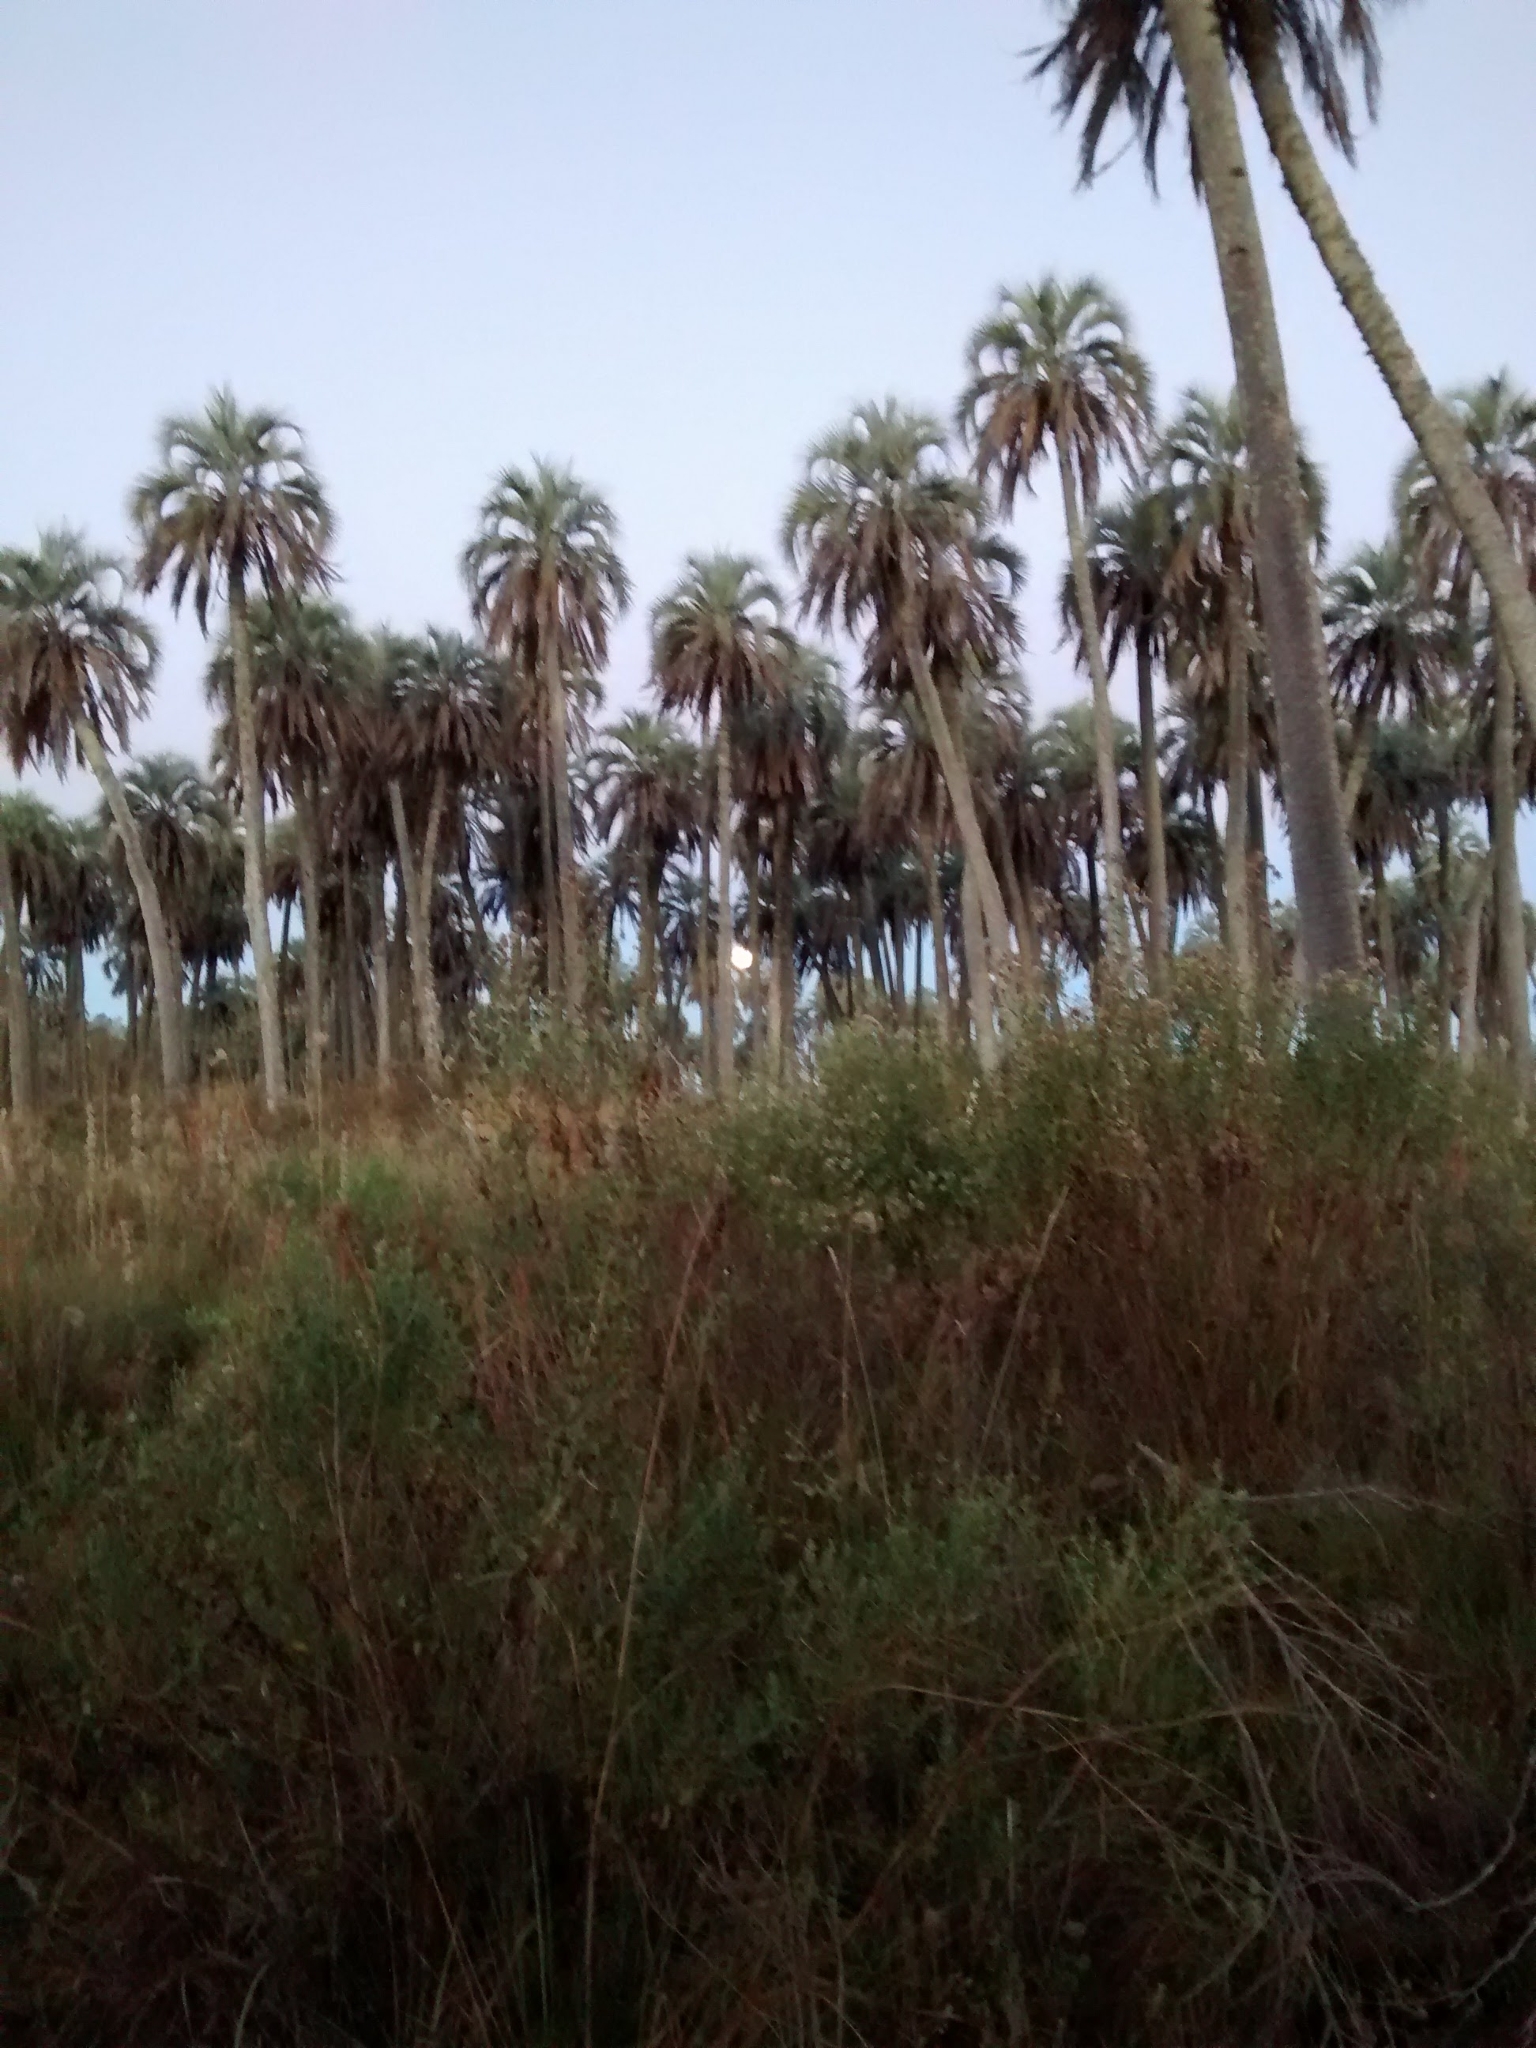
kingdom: Plantae
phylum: Tracheophyta
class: Liliopsida
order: Arecales
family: Arecaceae
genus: Butia
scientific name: Butia yatay
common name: Yatay palm
